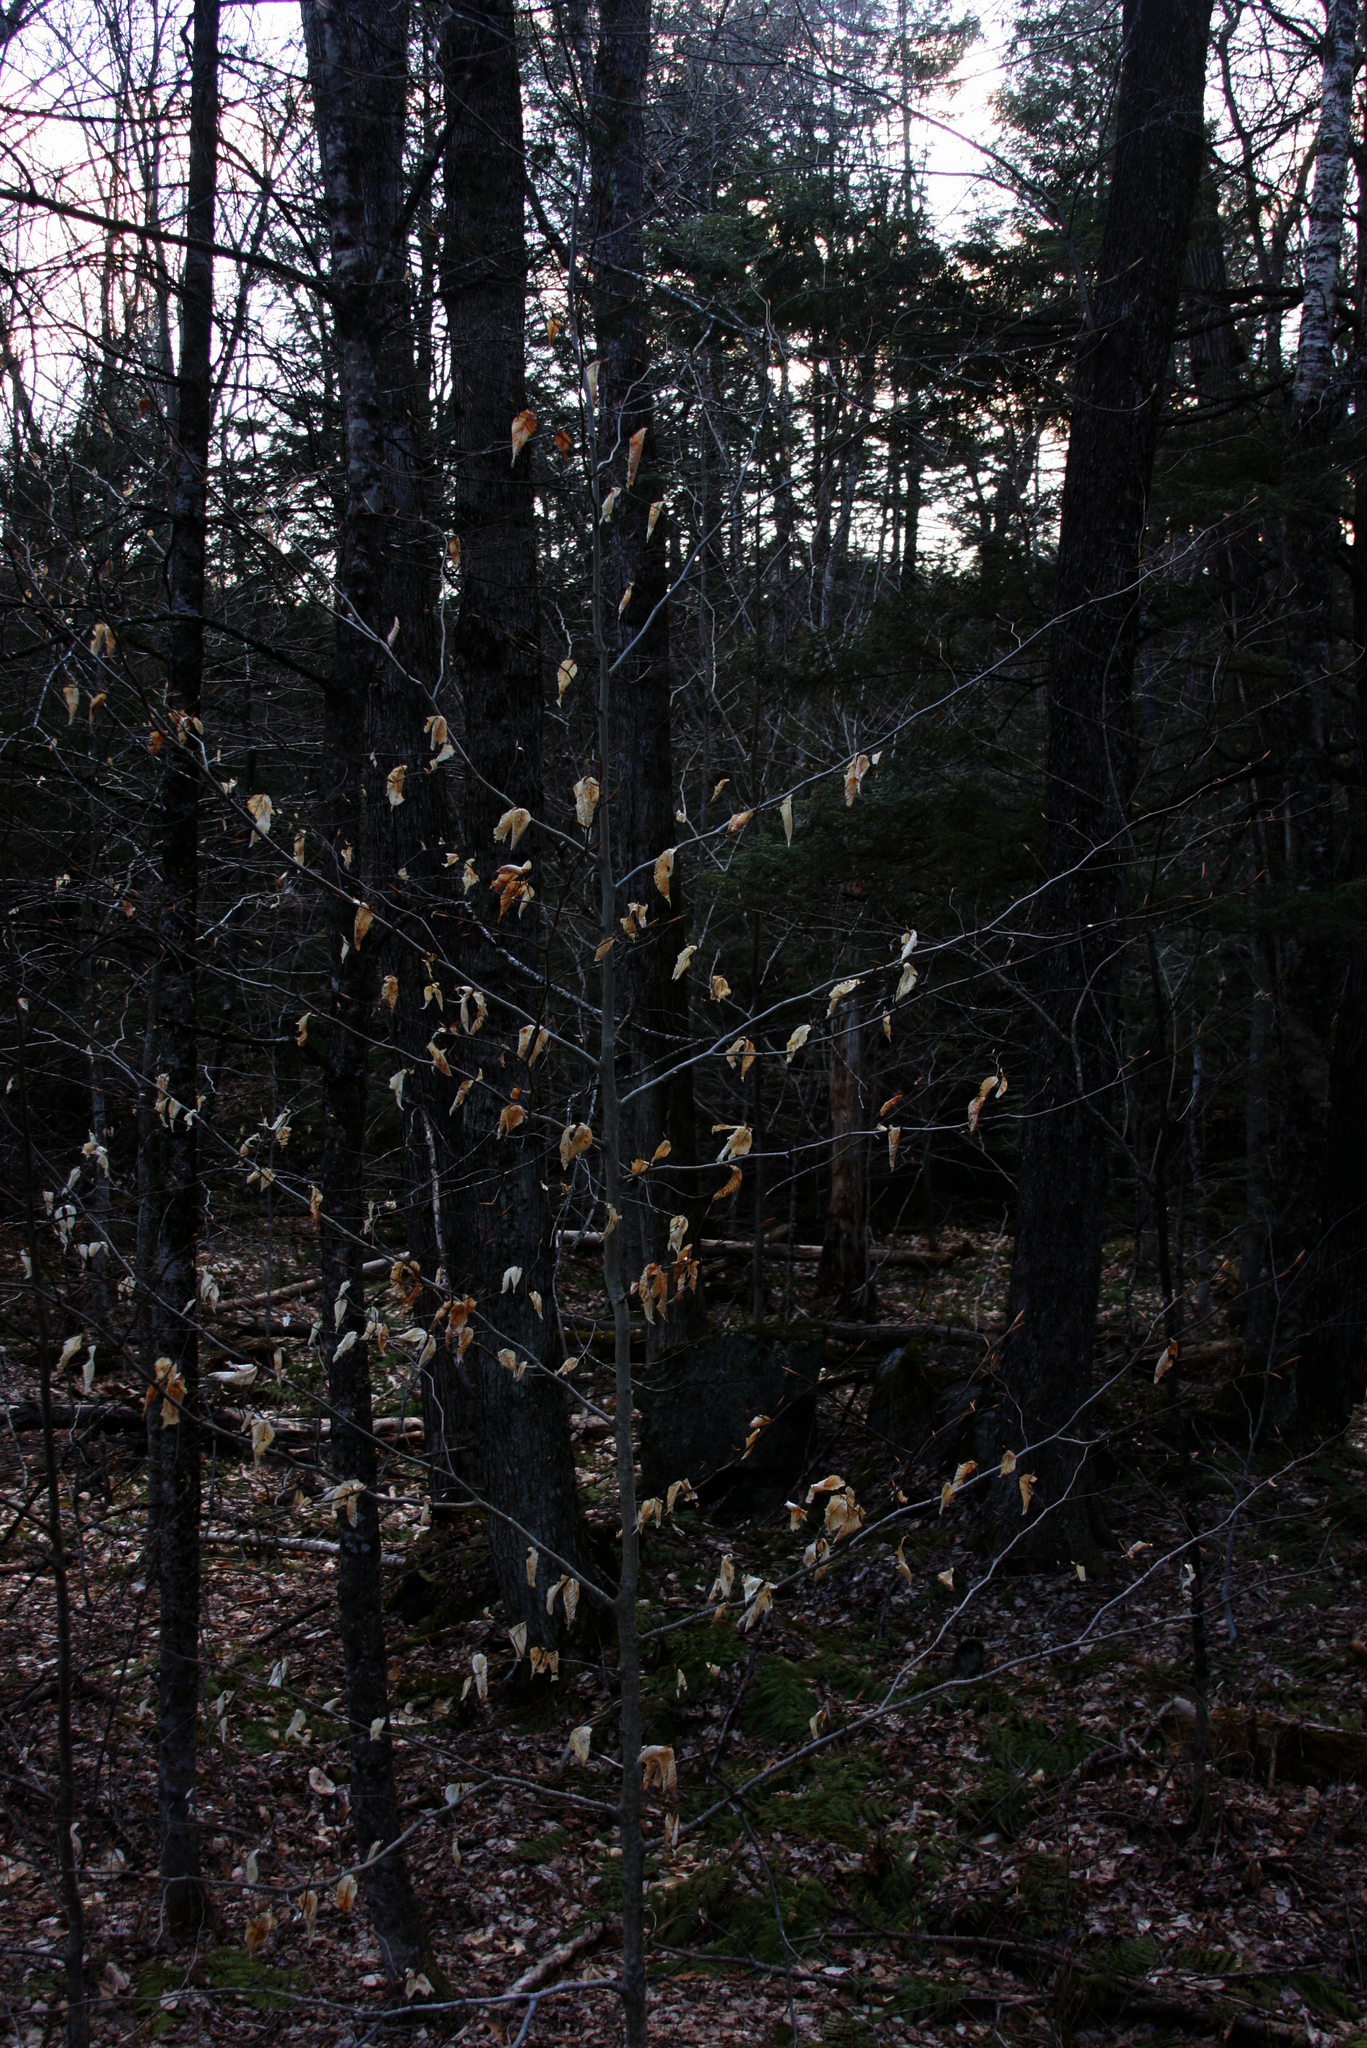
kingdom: Plantae
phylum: Tracheophyta
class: Magnoliopsida
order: Fagales
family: Fagaceae
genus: Fagus
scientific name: Fagus grandifolia
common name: American beech
